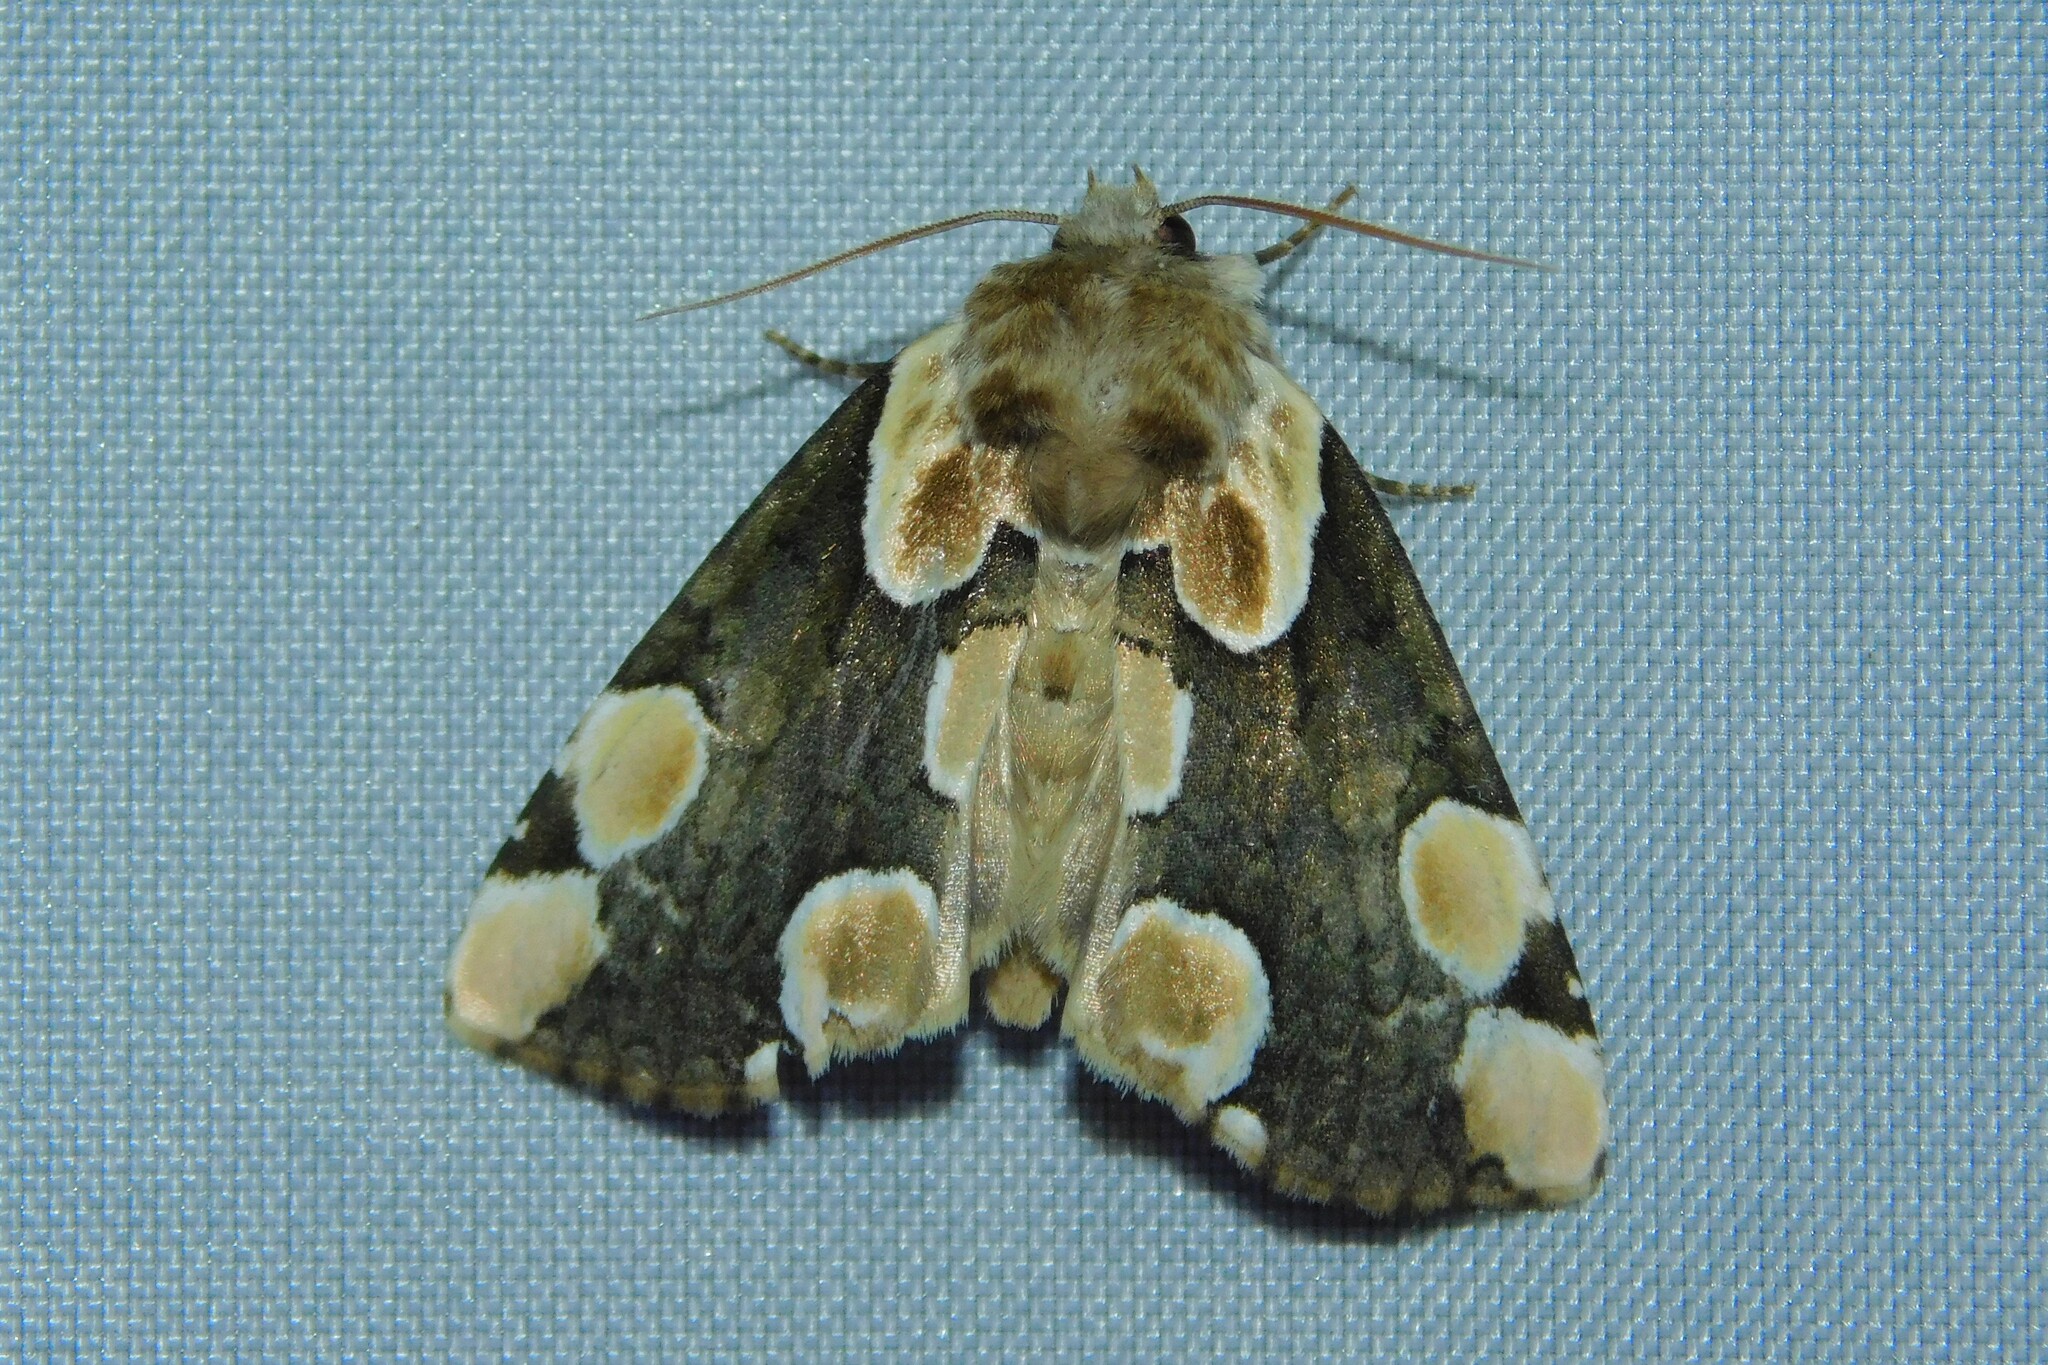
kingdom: Animalia
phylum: Arthropoda
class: Insecta
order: Lepidoptera
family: Drepanidae
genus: Thyatira
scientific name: Thyatira batis
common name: Peach blossom
